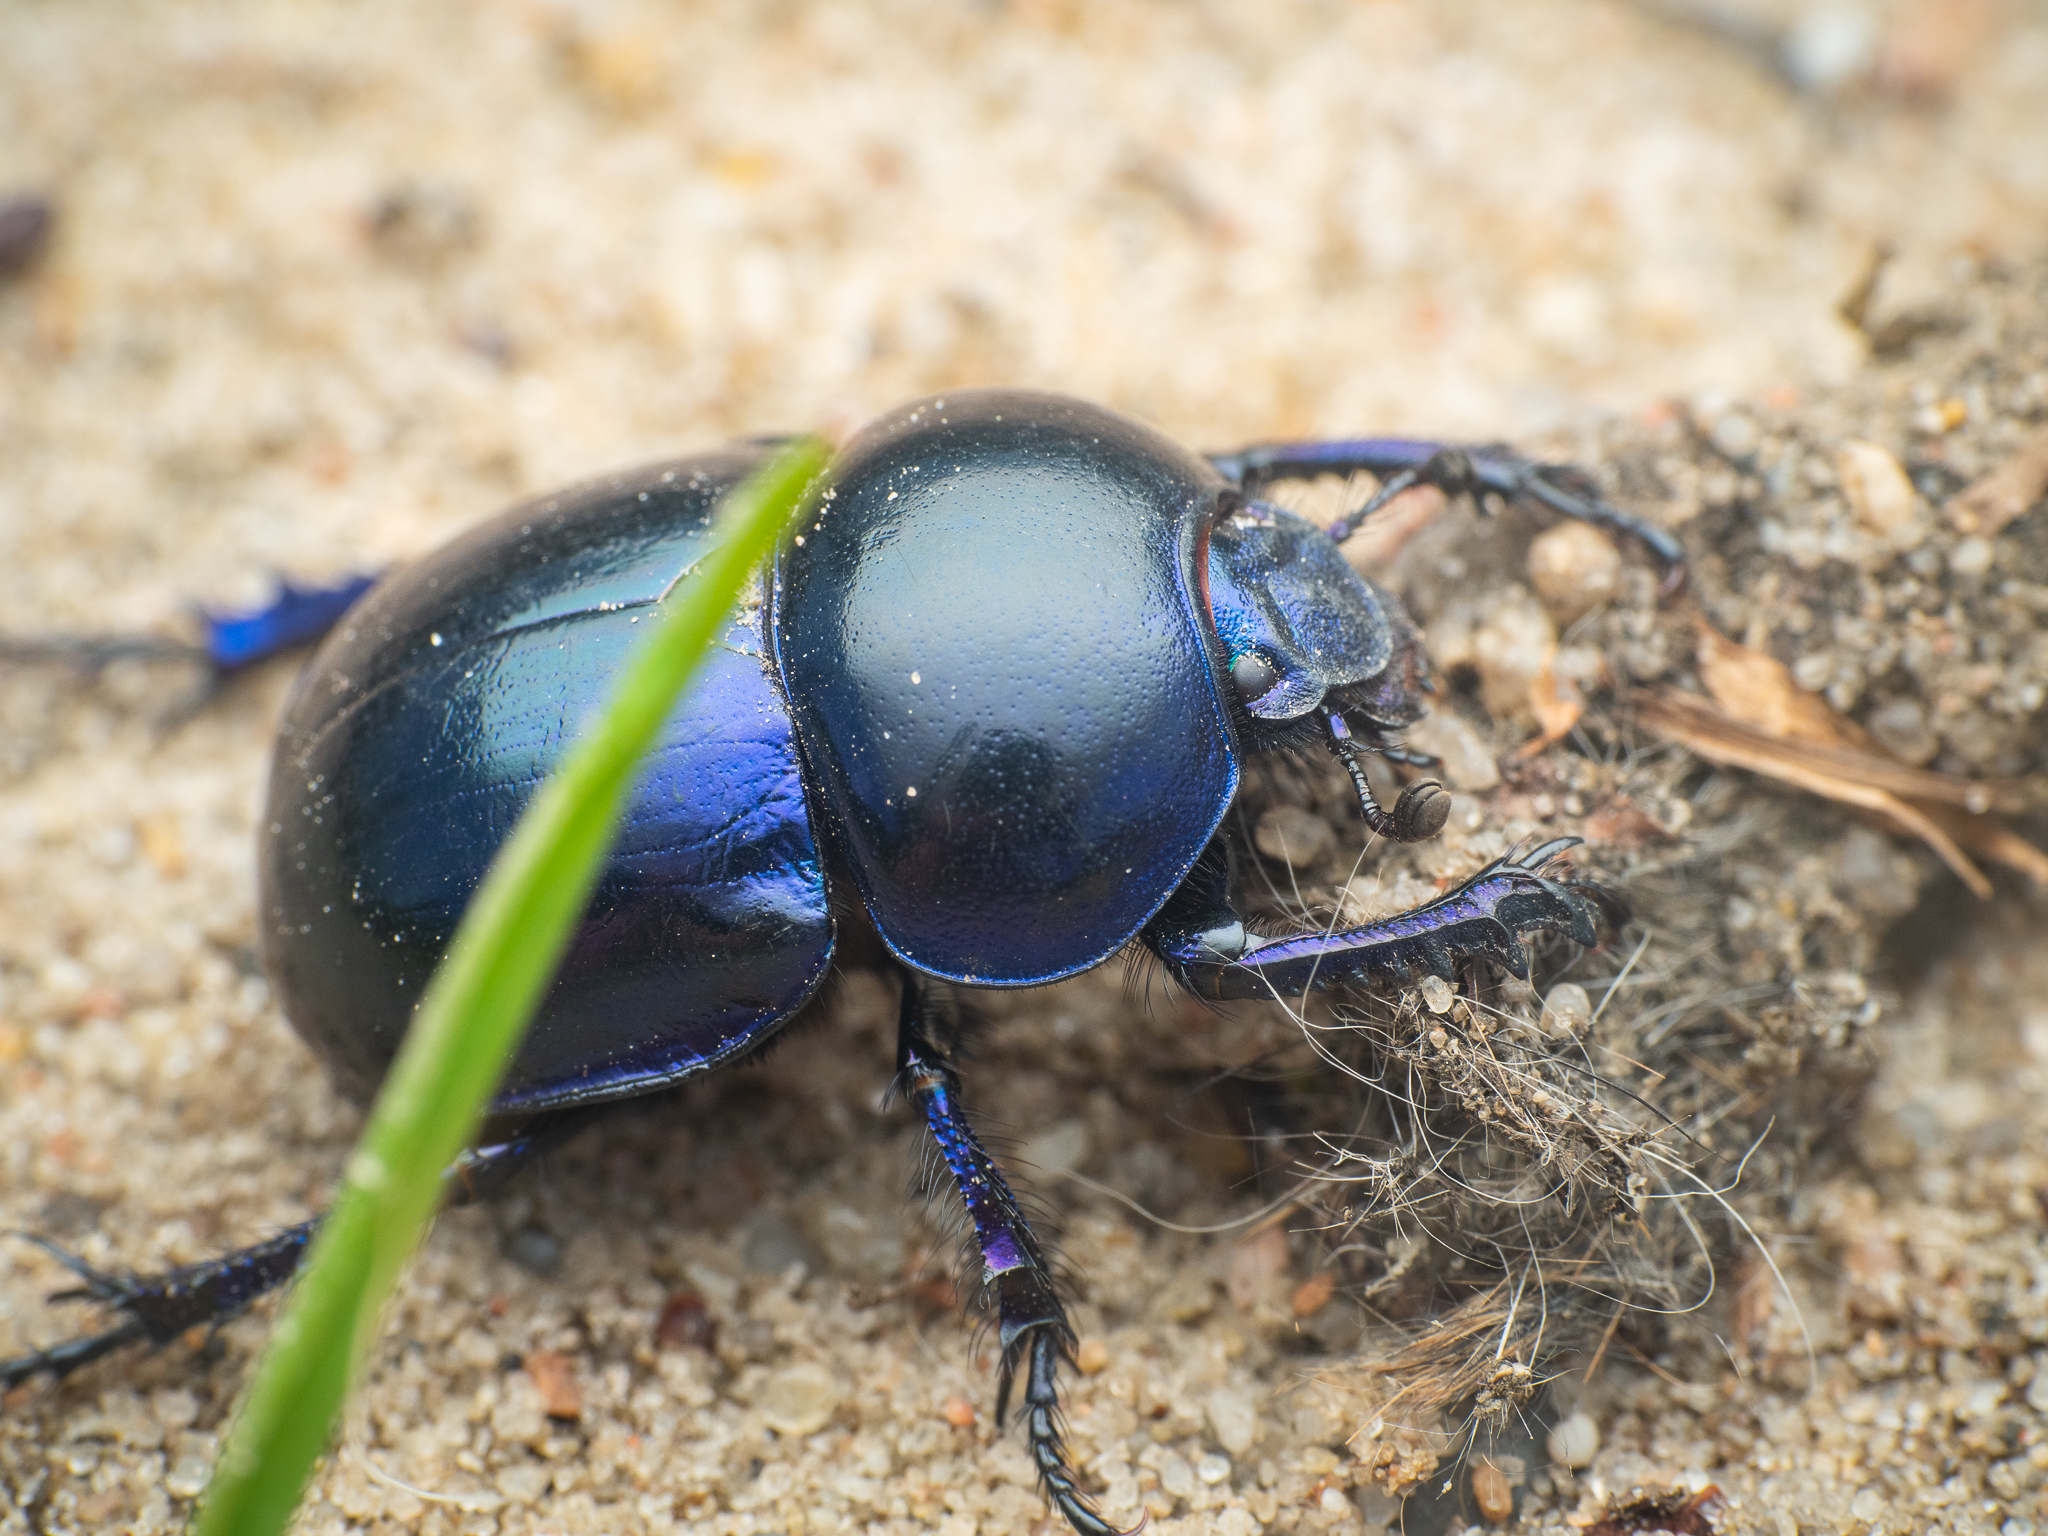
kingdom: Animalia
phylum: Arthropoda
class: Insecta
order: Coleoptera
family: Geotrupidae
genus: Trypocopris
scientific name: Trypocopris vernalis
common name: Spring dumbledor
